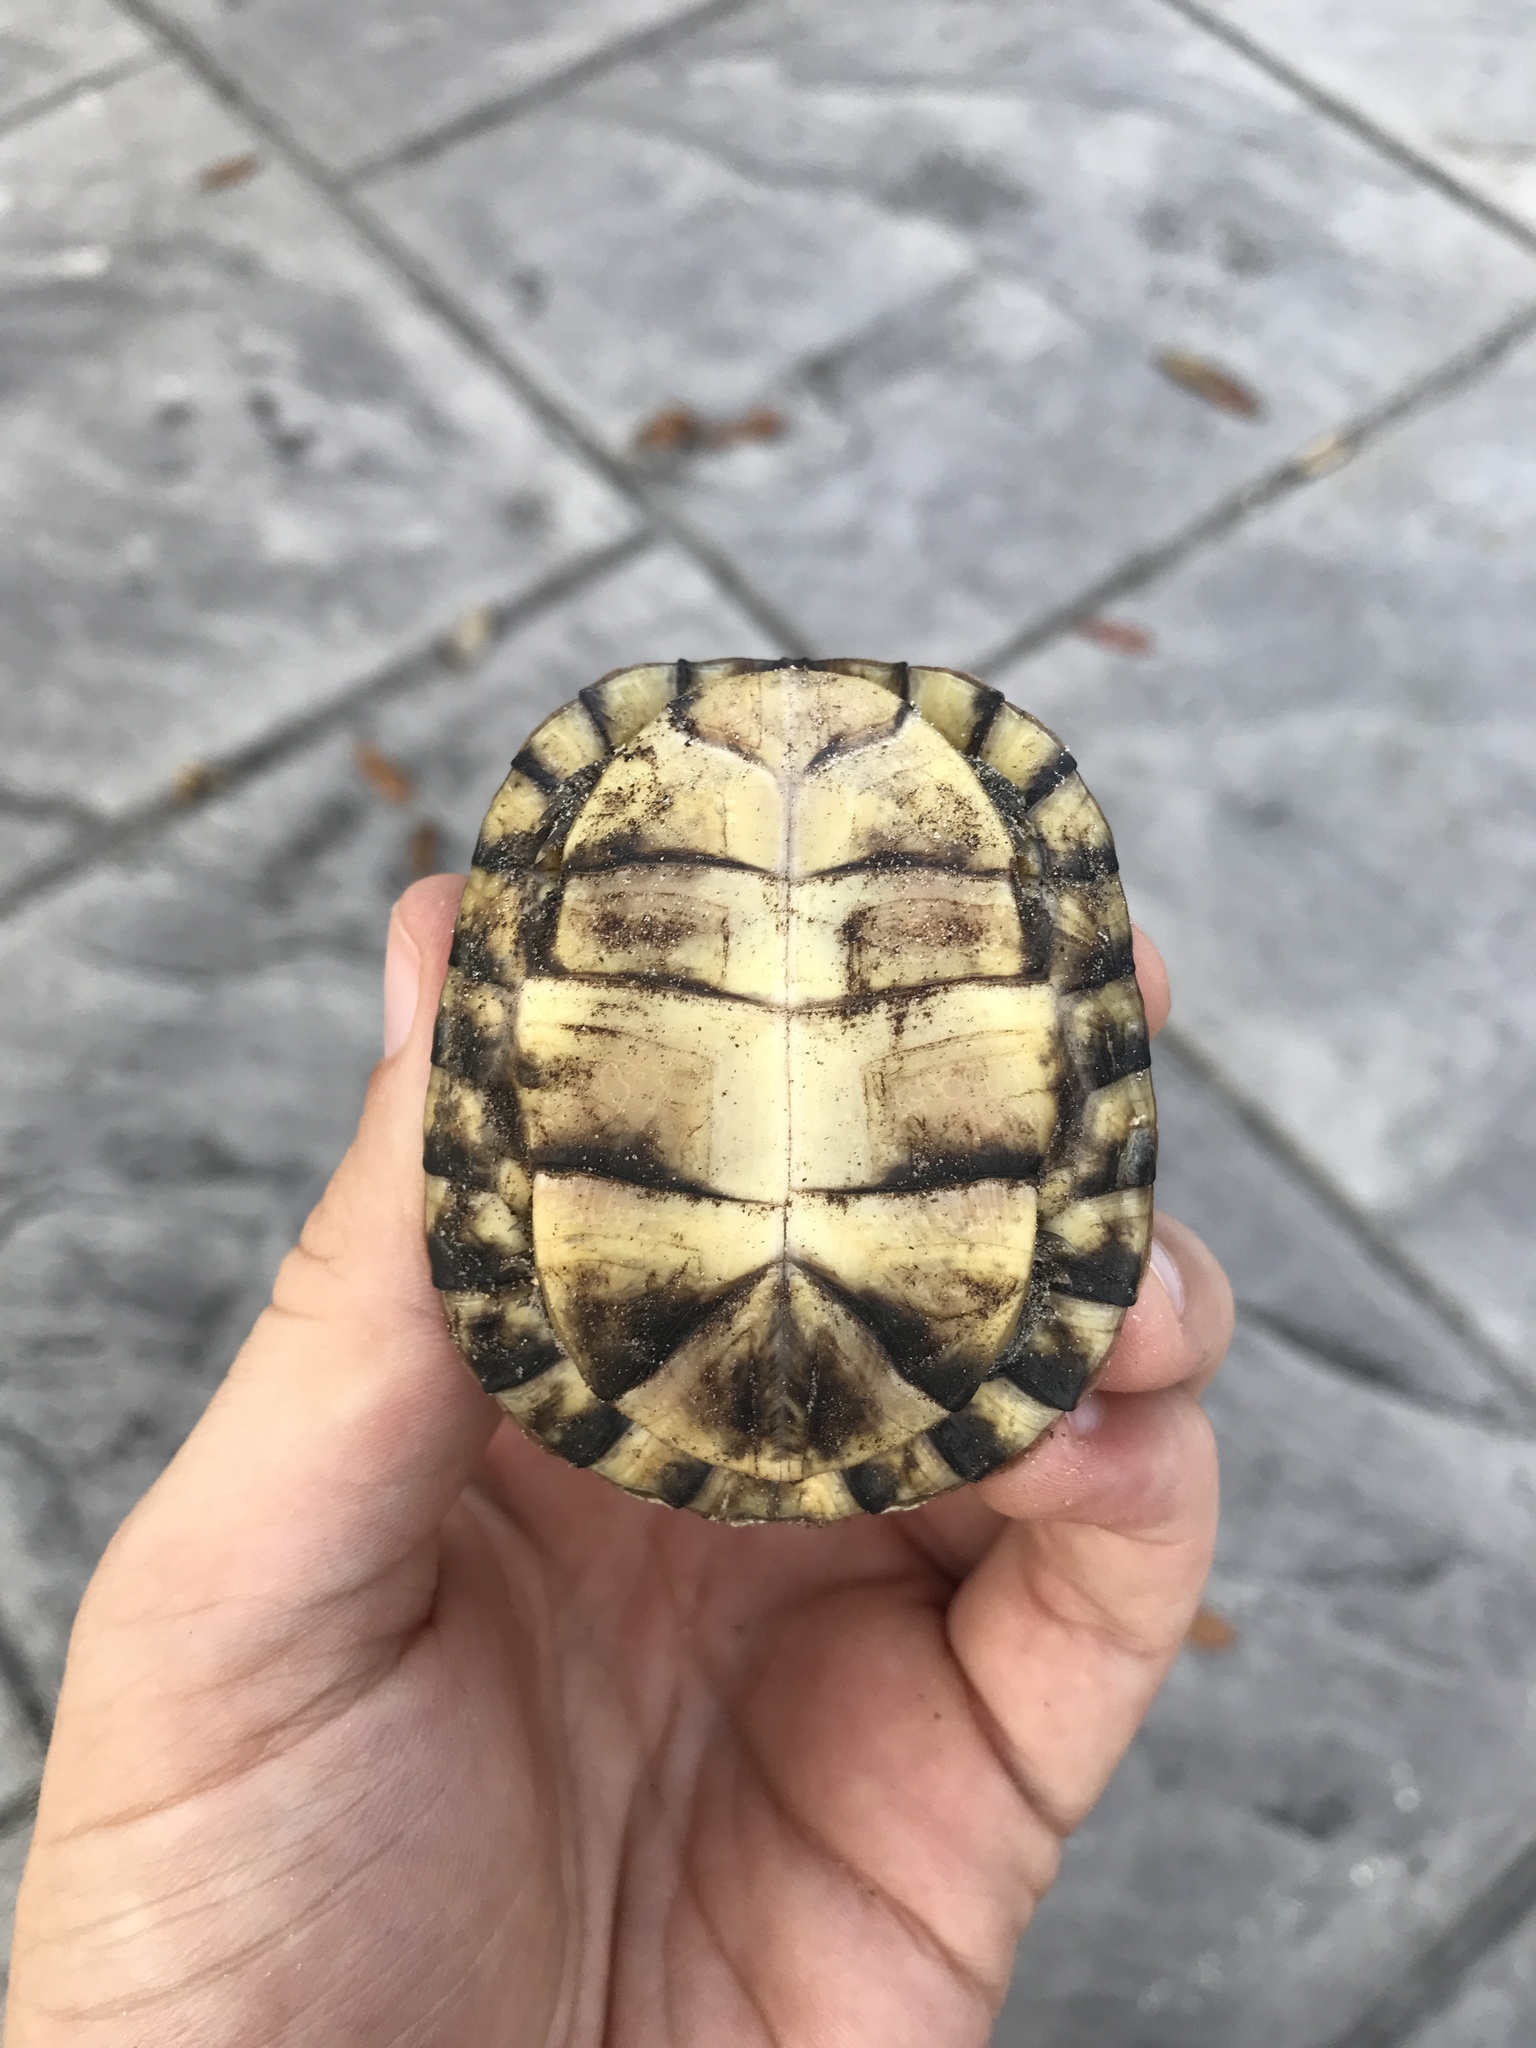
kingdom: Animalia
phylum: Chordata
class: Testudines
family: Emydidae
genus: Terrapene
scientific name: Terrapene carolina
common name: Common box turtle
